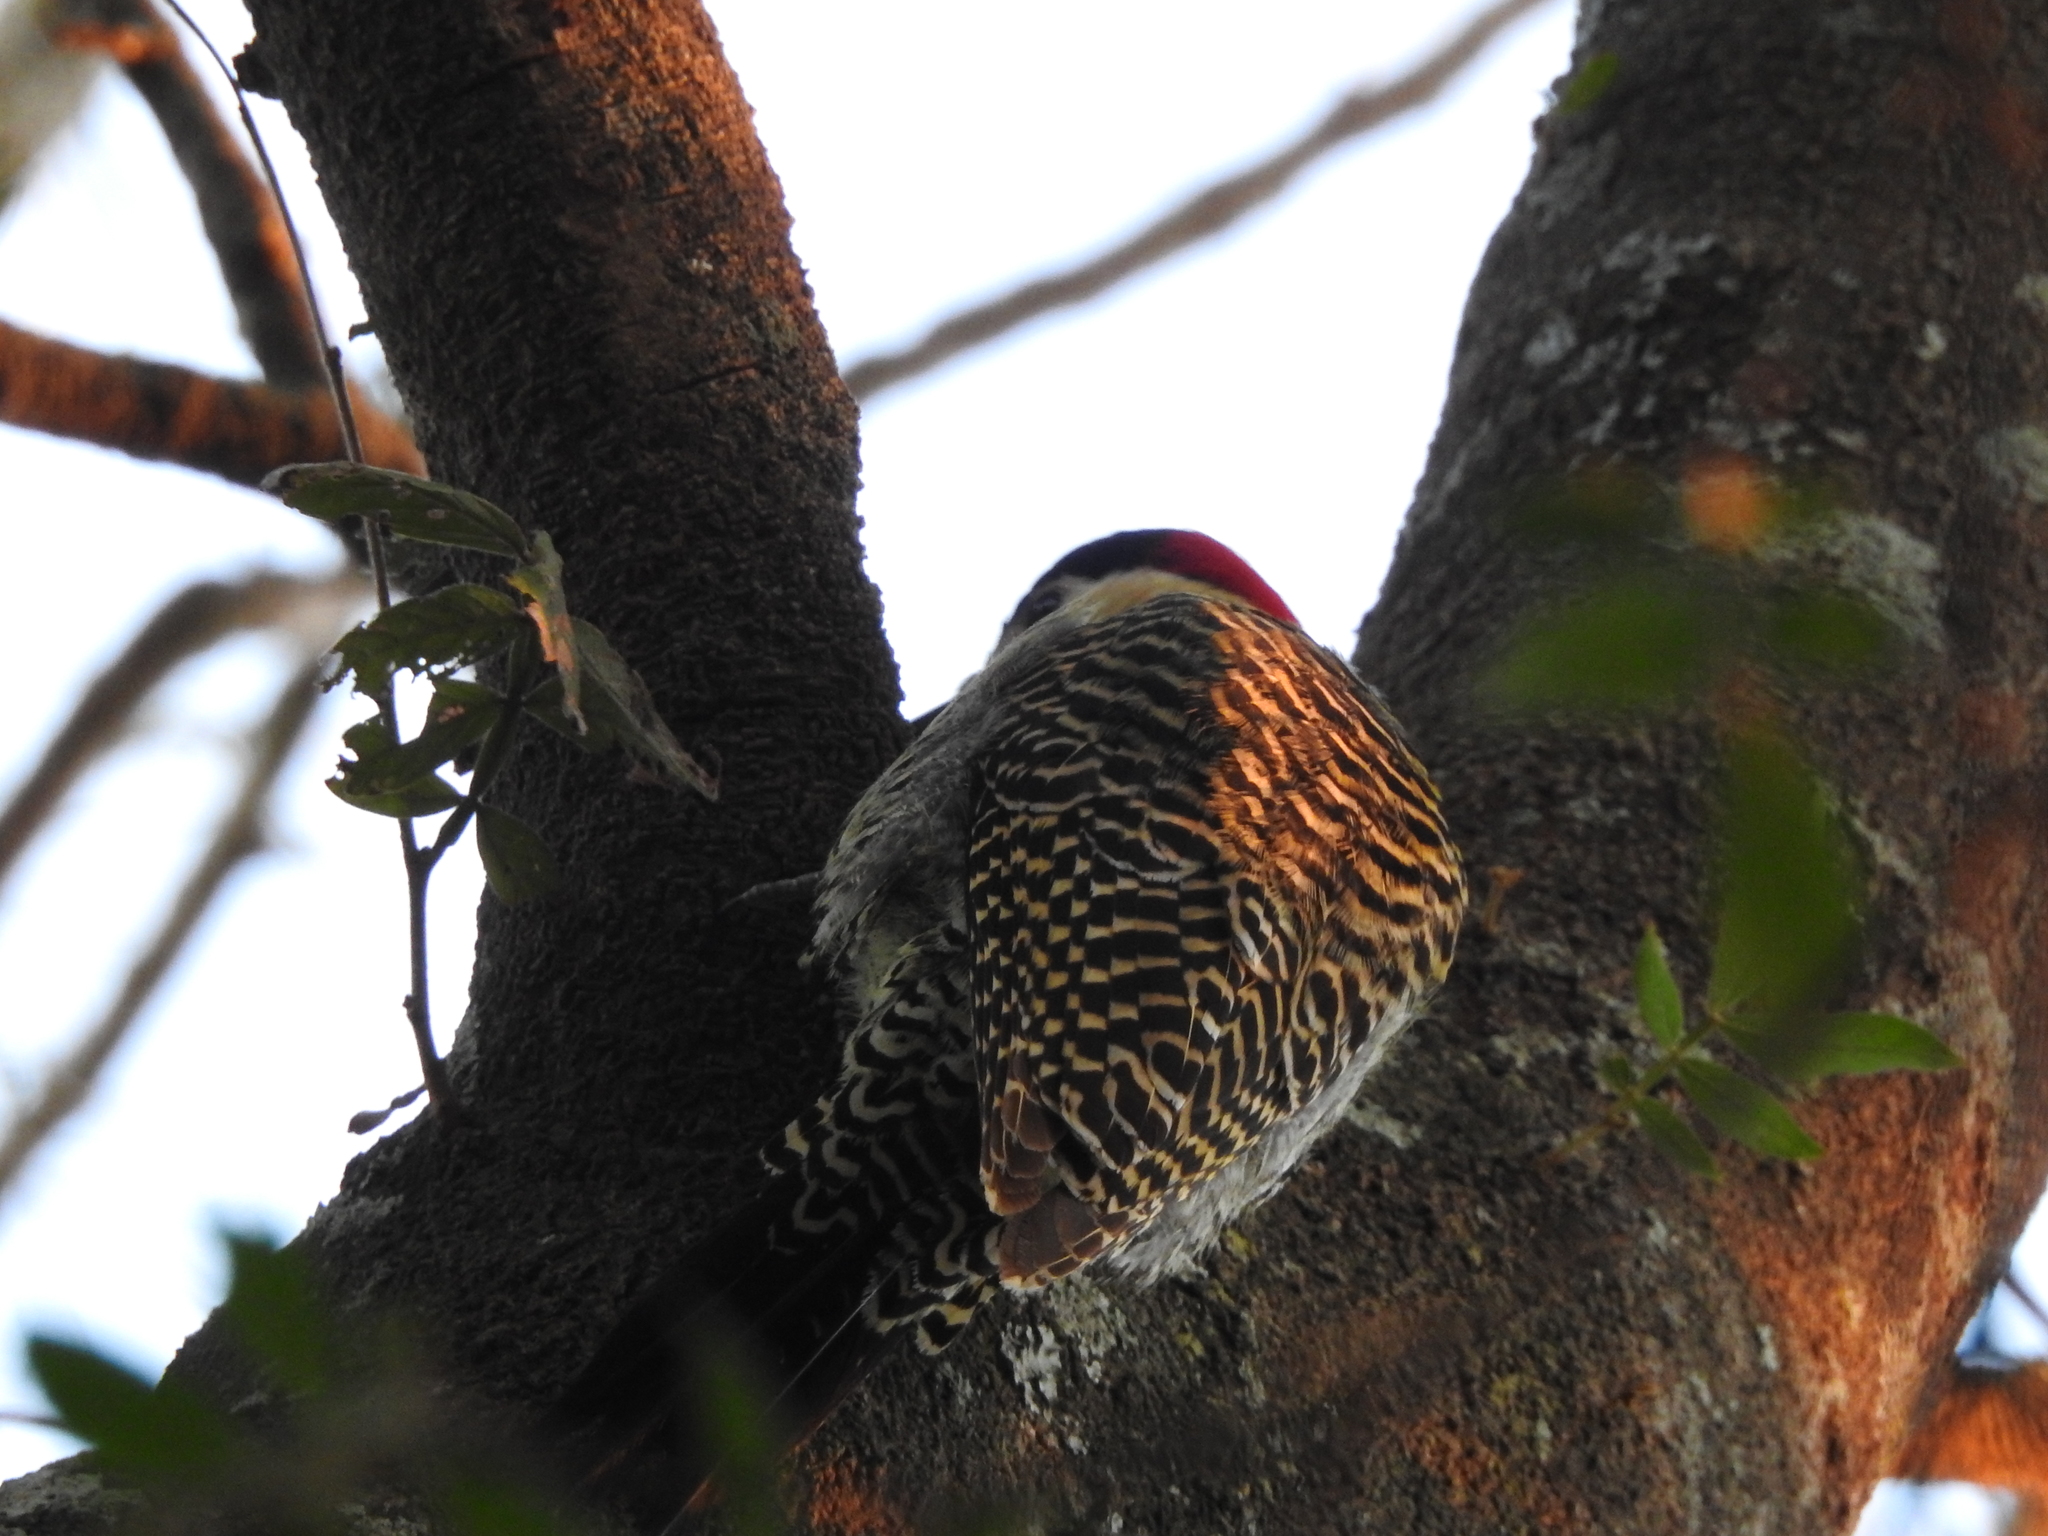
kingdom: Animalia
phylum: Chordata
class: Aves
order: Piciformes
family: Picidae
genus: Colaptes
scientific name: Colaptes melanochloros
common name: Green-barred woodpecker
